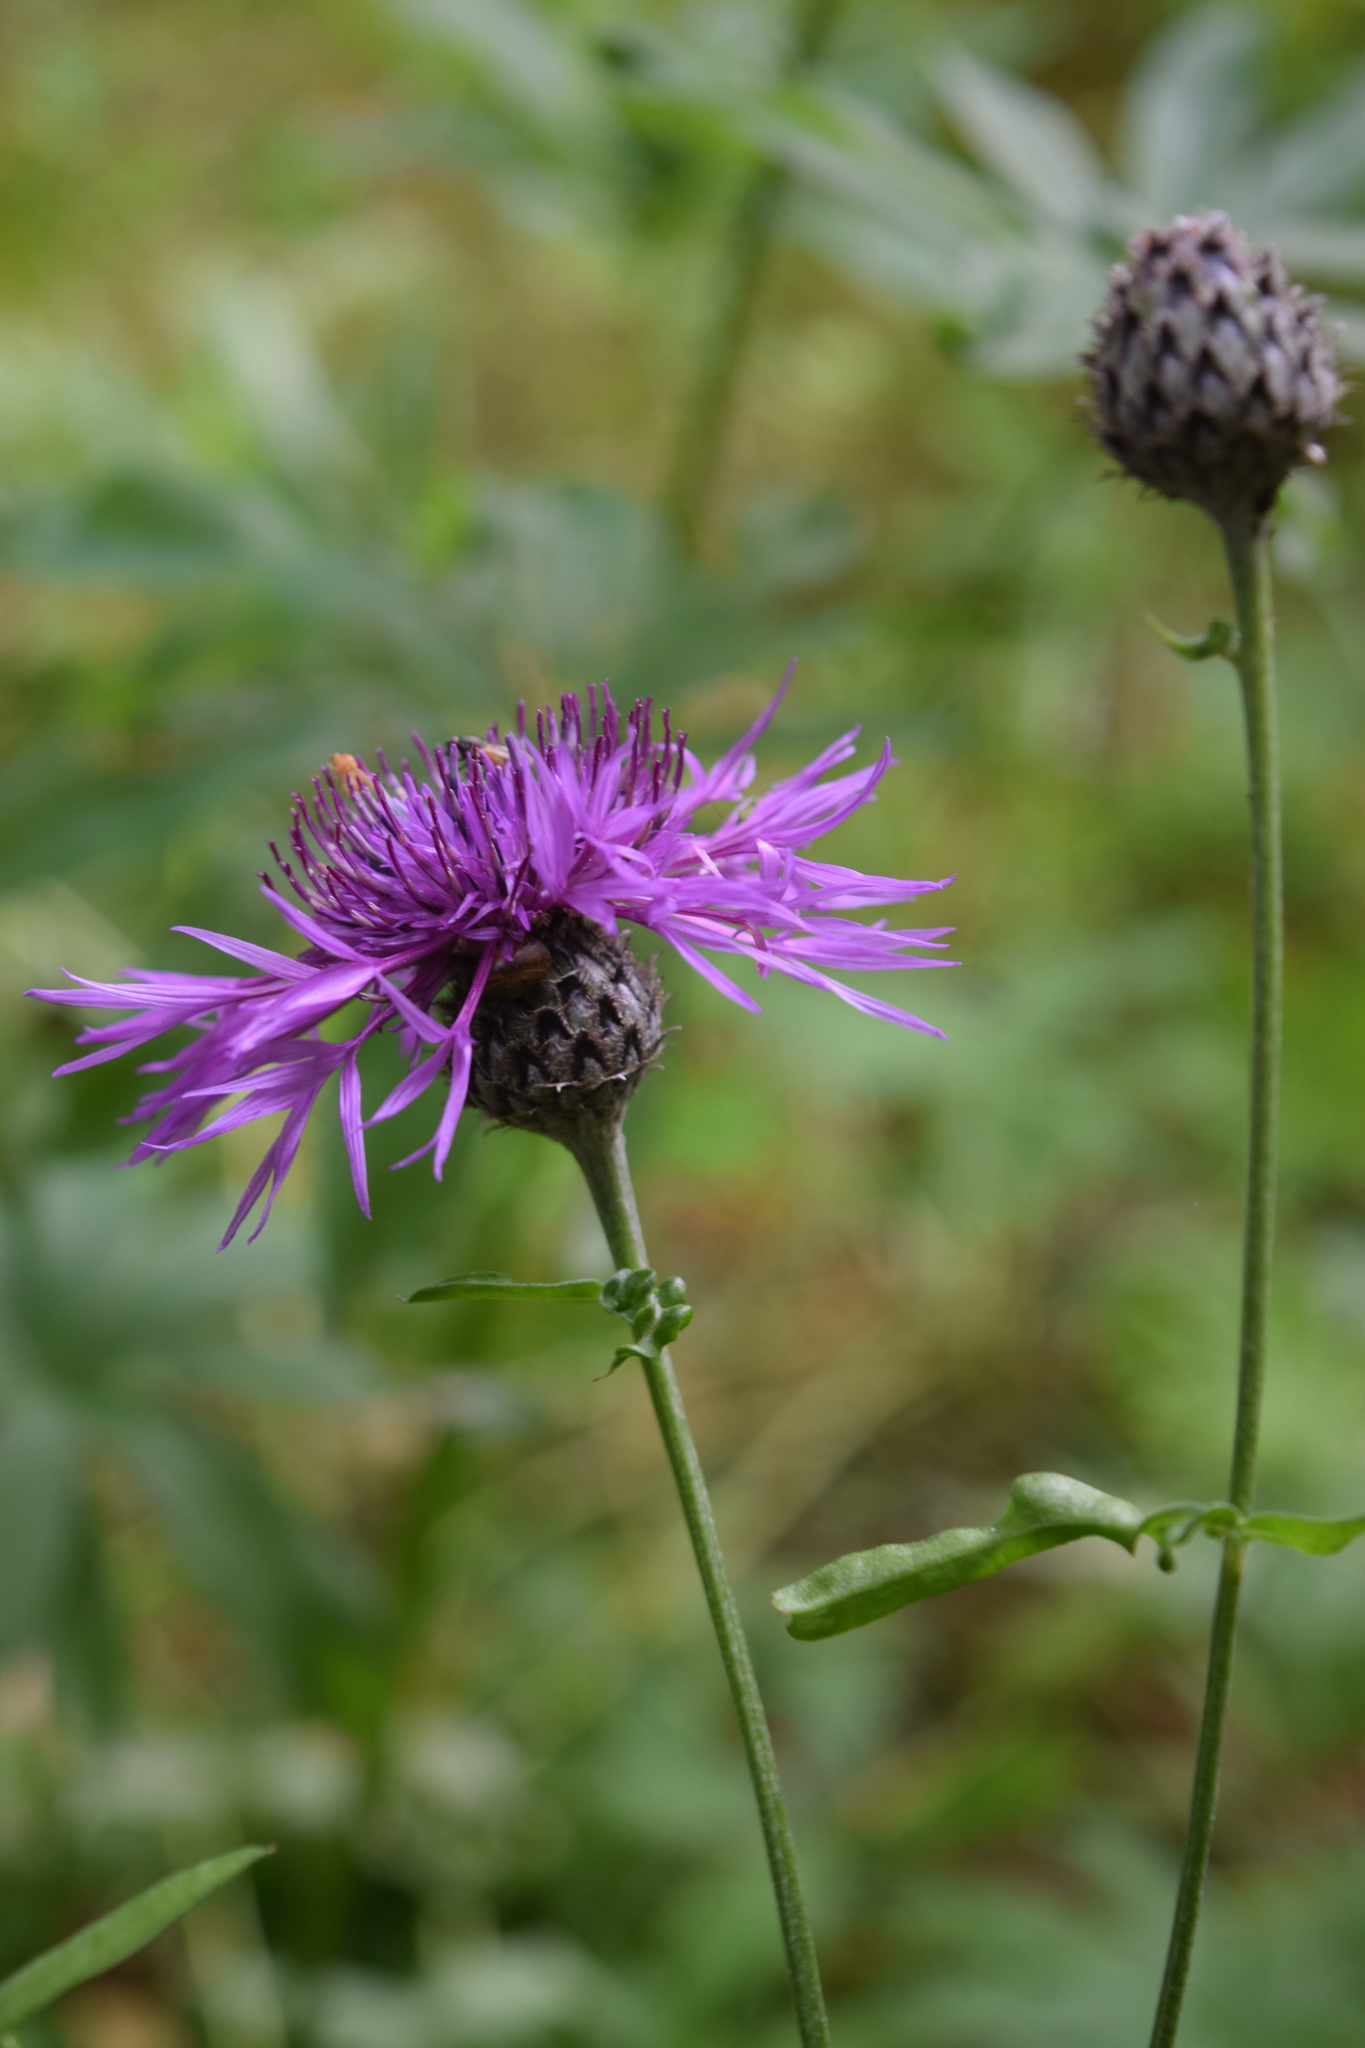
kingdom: Plantae
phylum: Tracheophyta
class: Magnoliopsida
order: Asterales
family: Asteraceae
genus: Centaurea
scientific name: Centaurea scabiosa
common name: Greater knapweed
